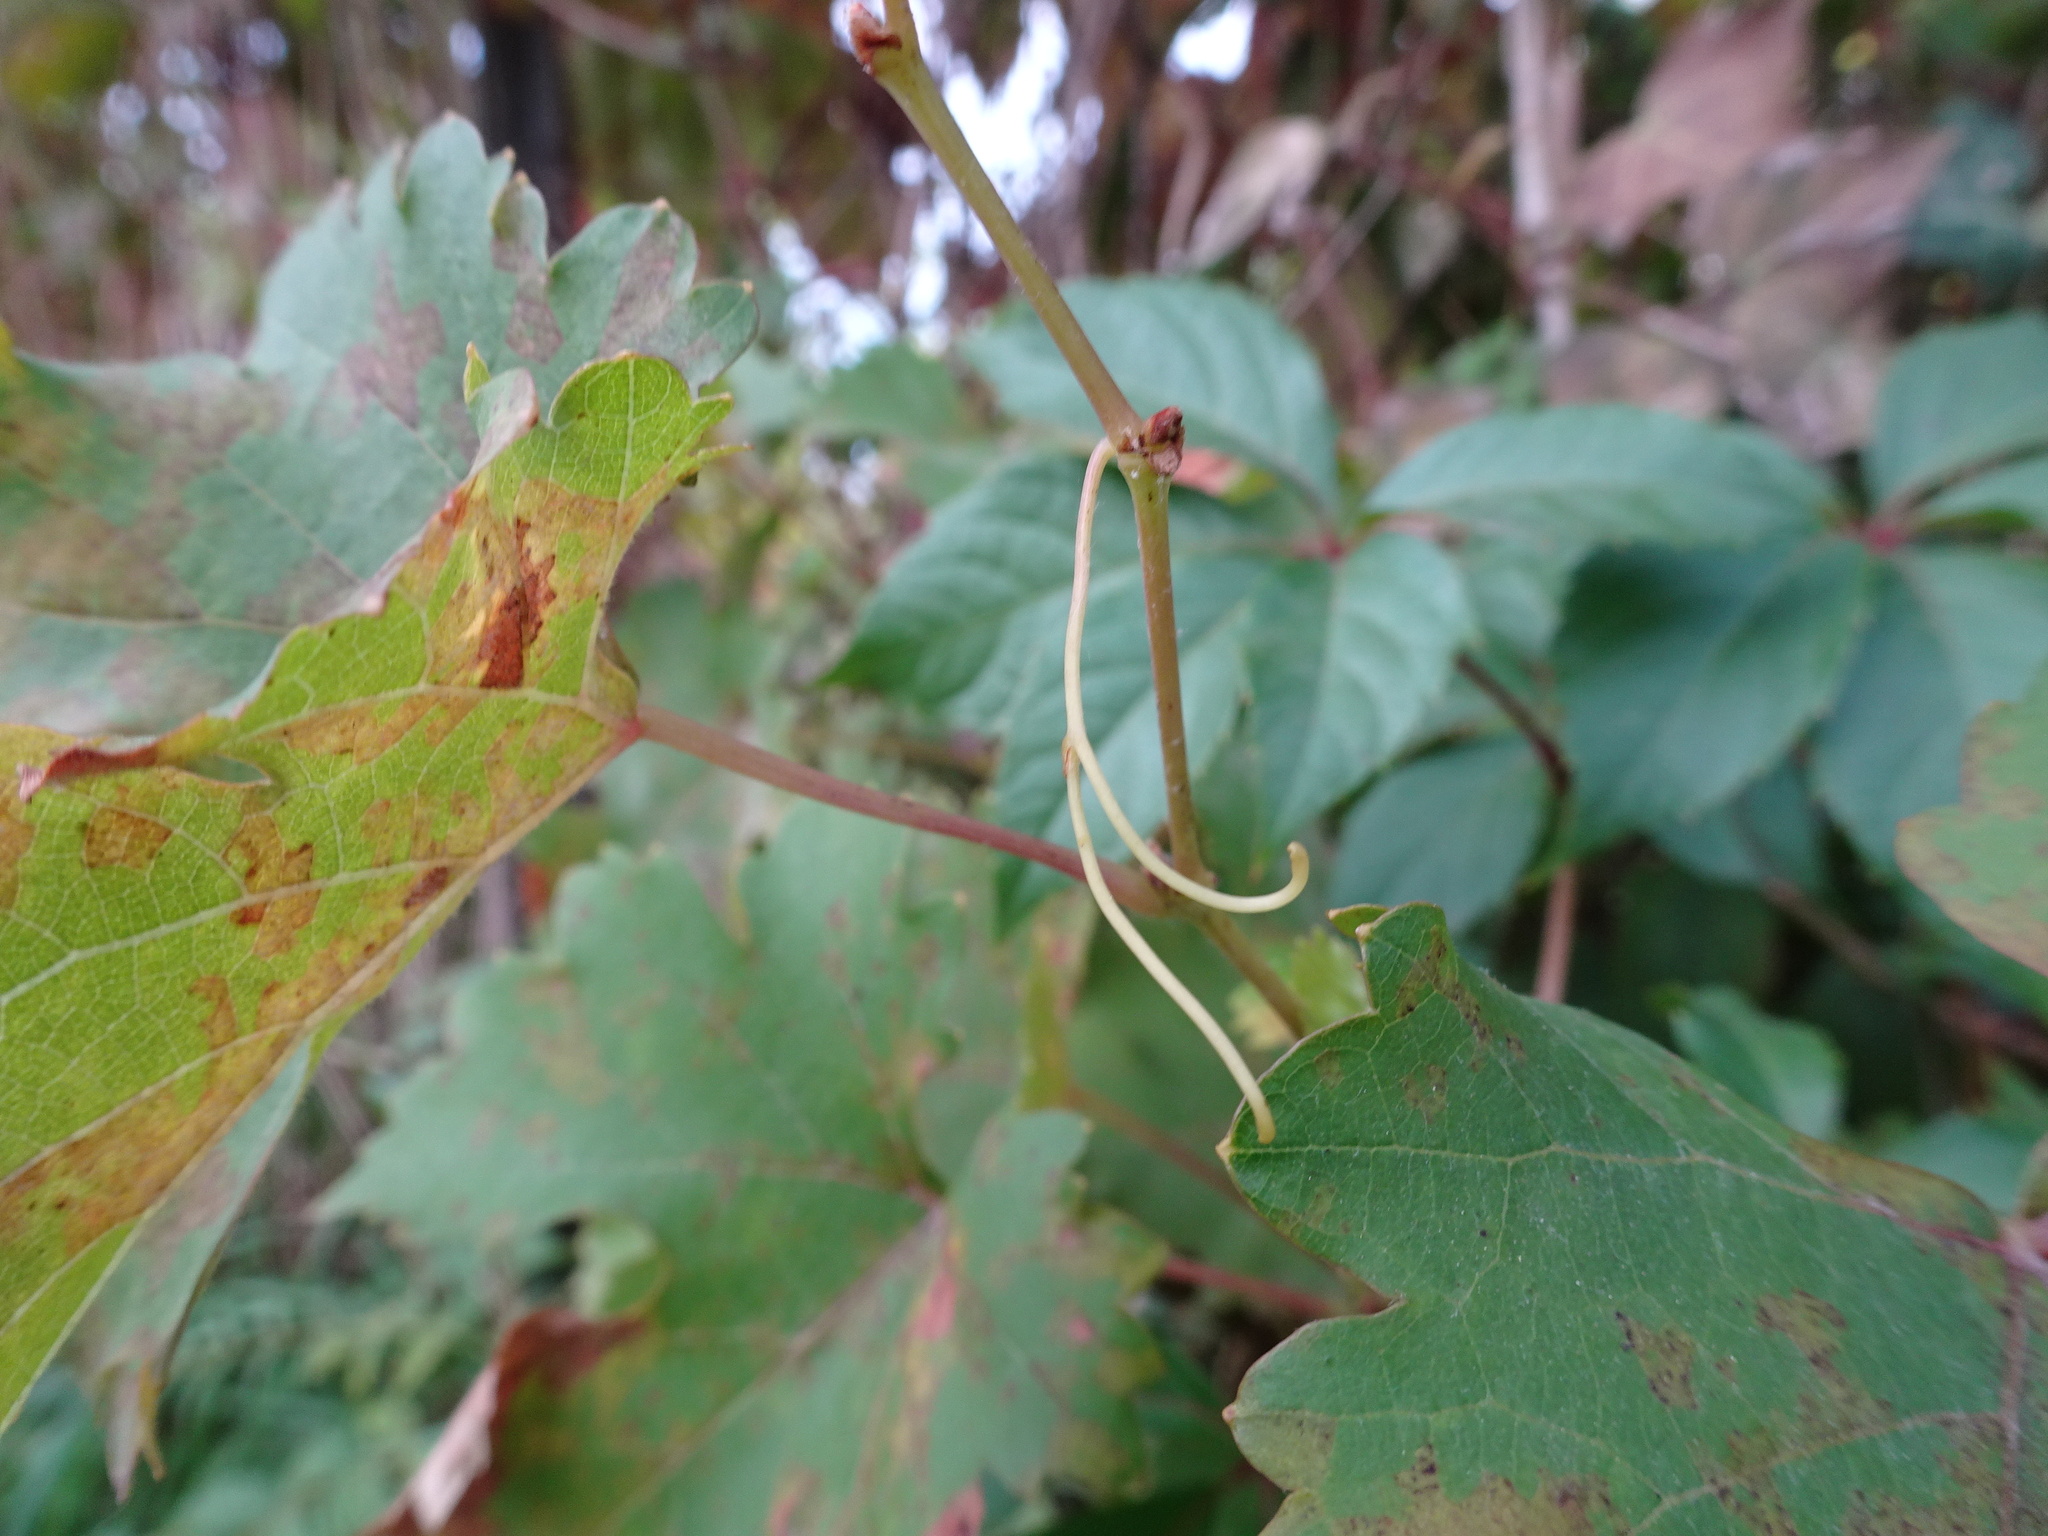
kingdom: Plantae
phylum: Tracheophyta
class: Magnoliopsida
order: Vitales
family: Vitaceae
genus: Vitis
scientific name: Vitis vinifera
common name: Grape-vine
